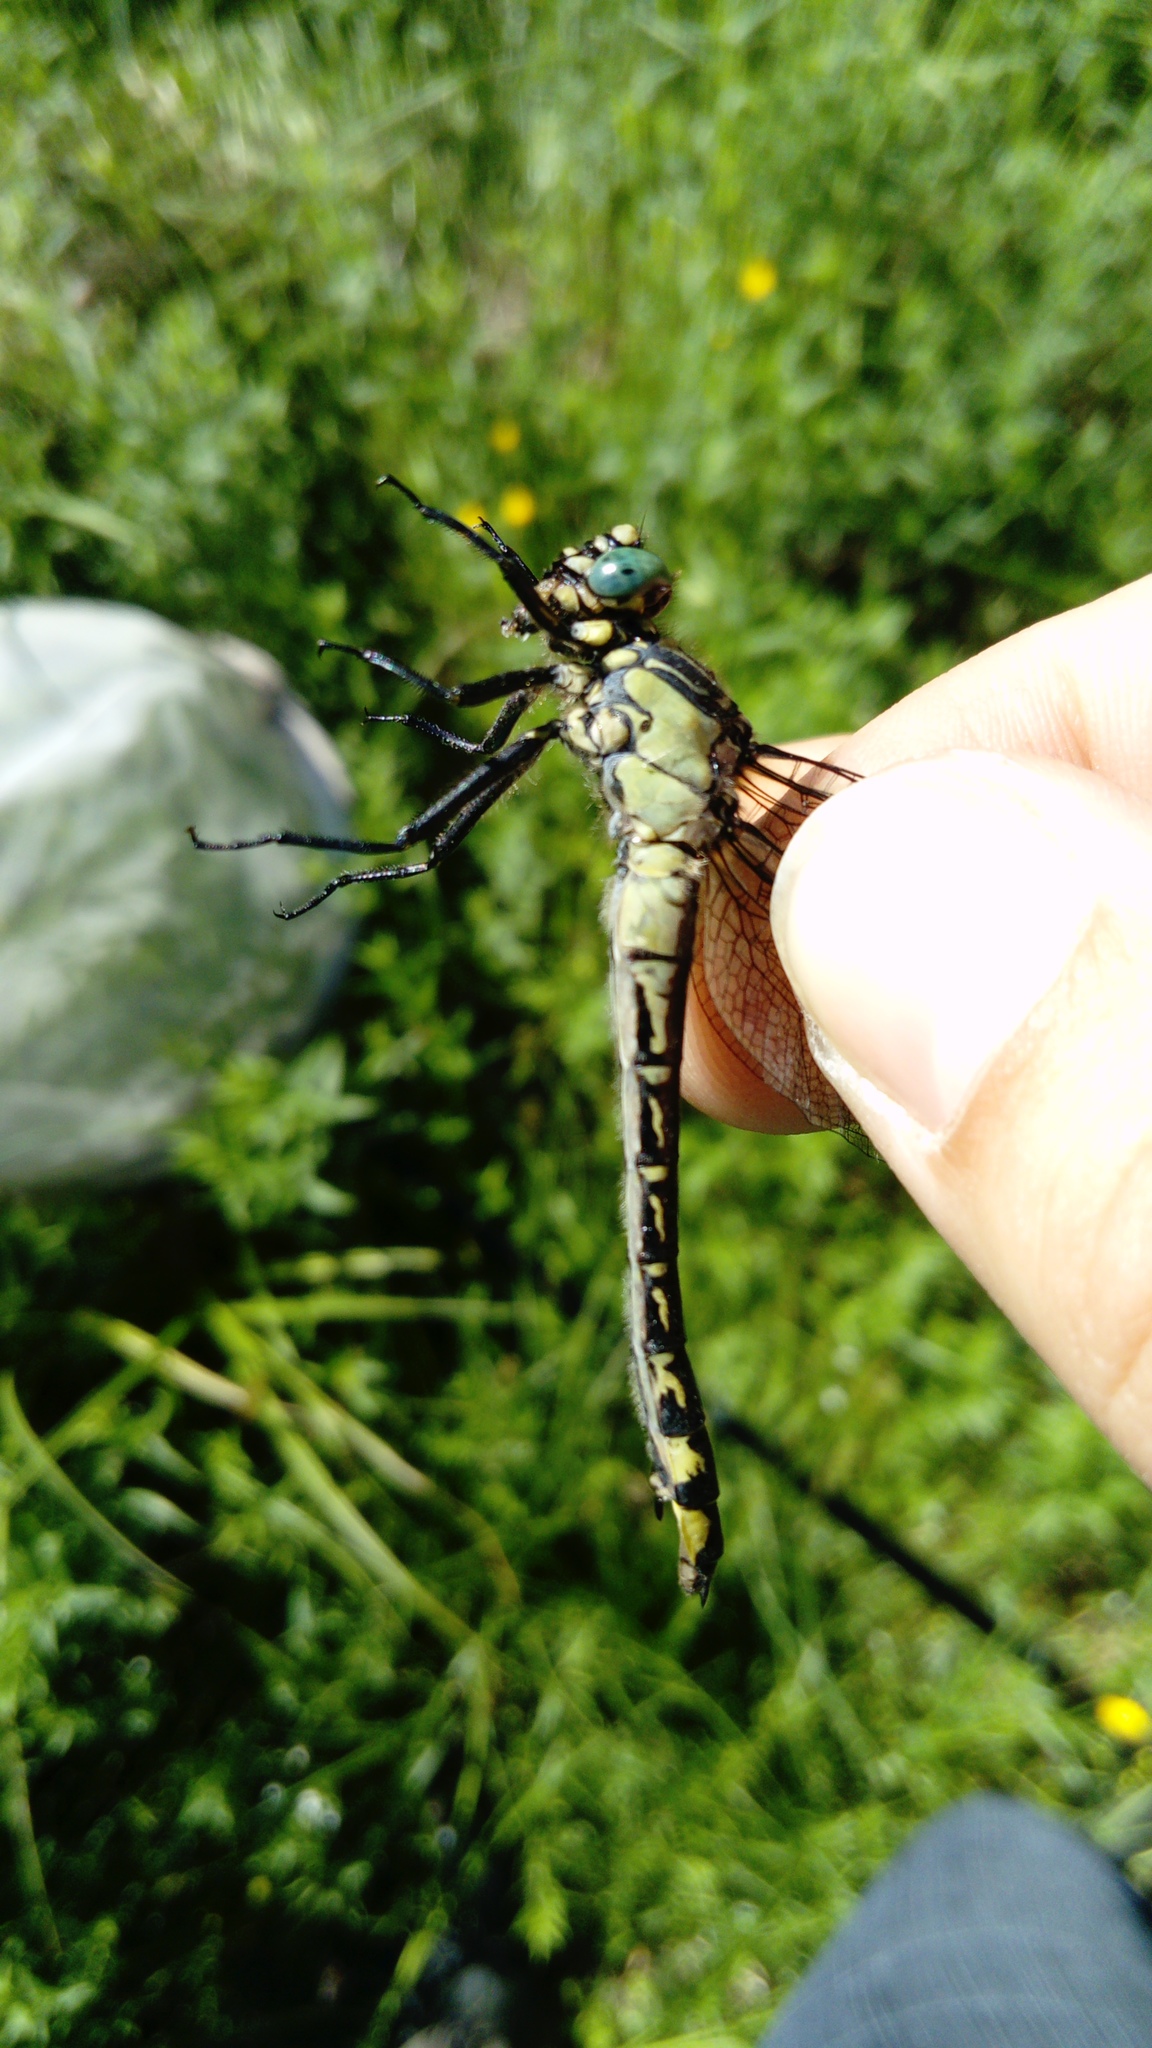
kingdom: Animalia
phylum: Arthropoda
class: Insecta
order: Odonata
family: Gomphidae
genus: Gomphus
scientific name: Gomphus vulgatissimus
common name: Club-tailed dragonfly
